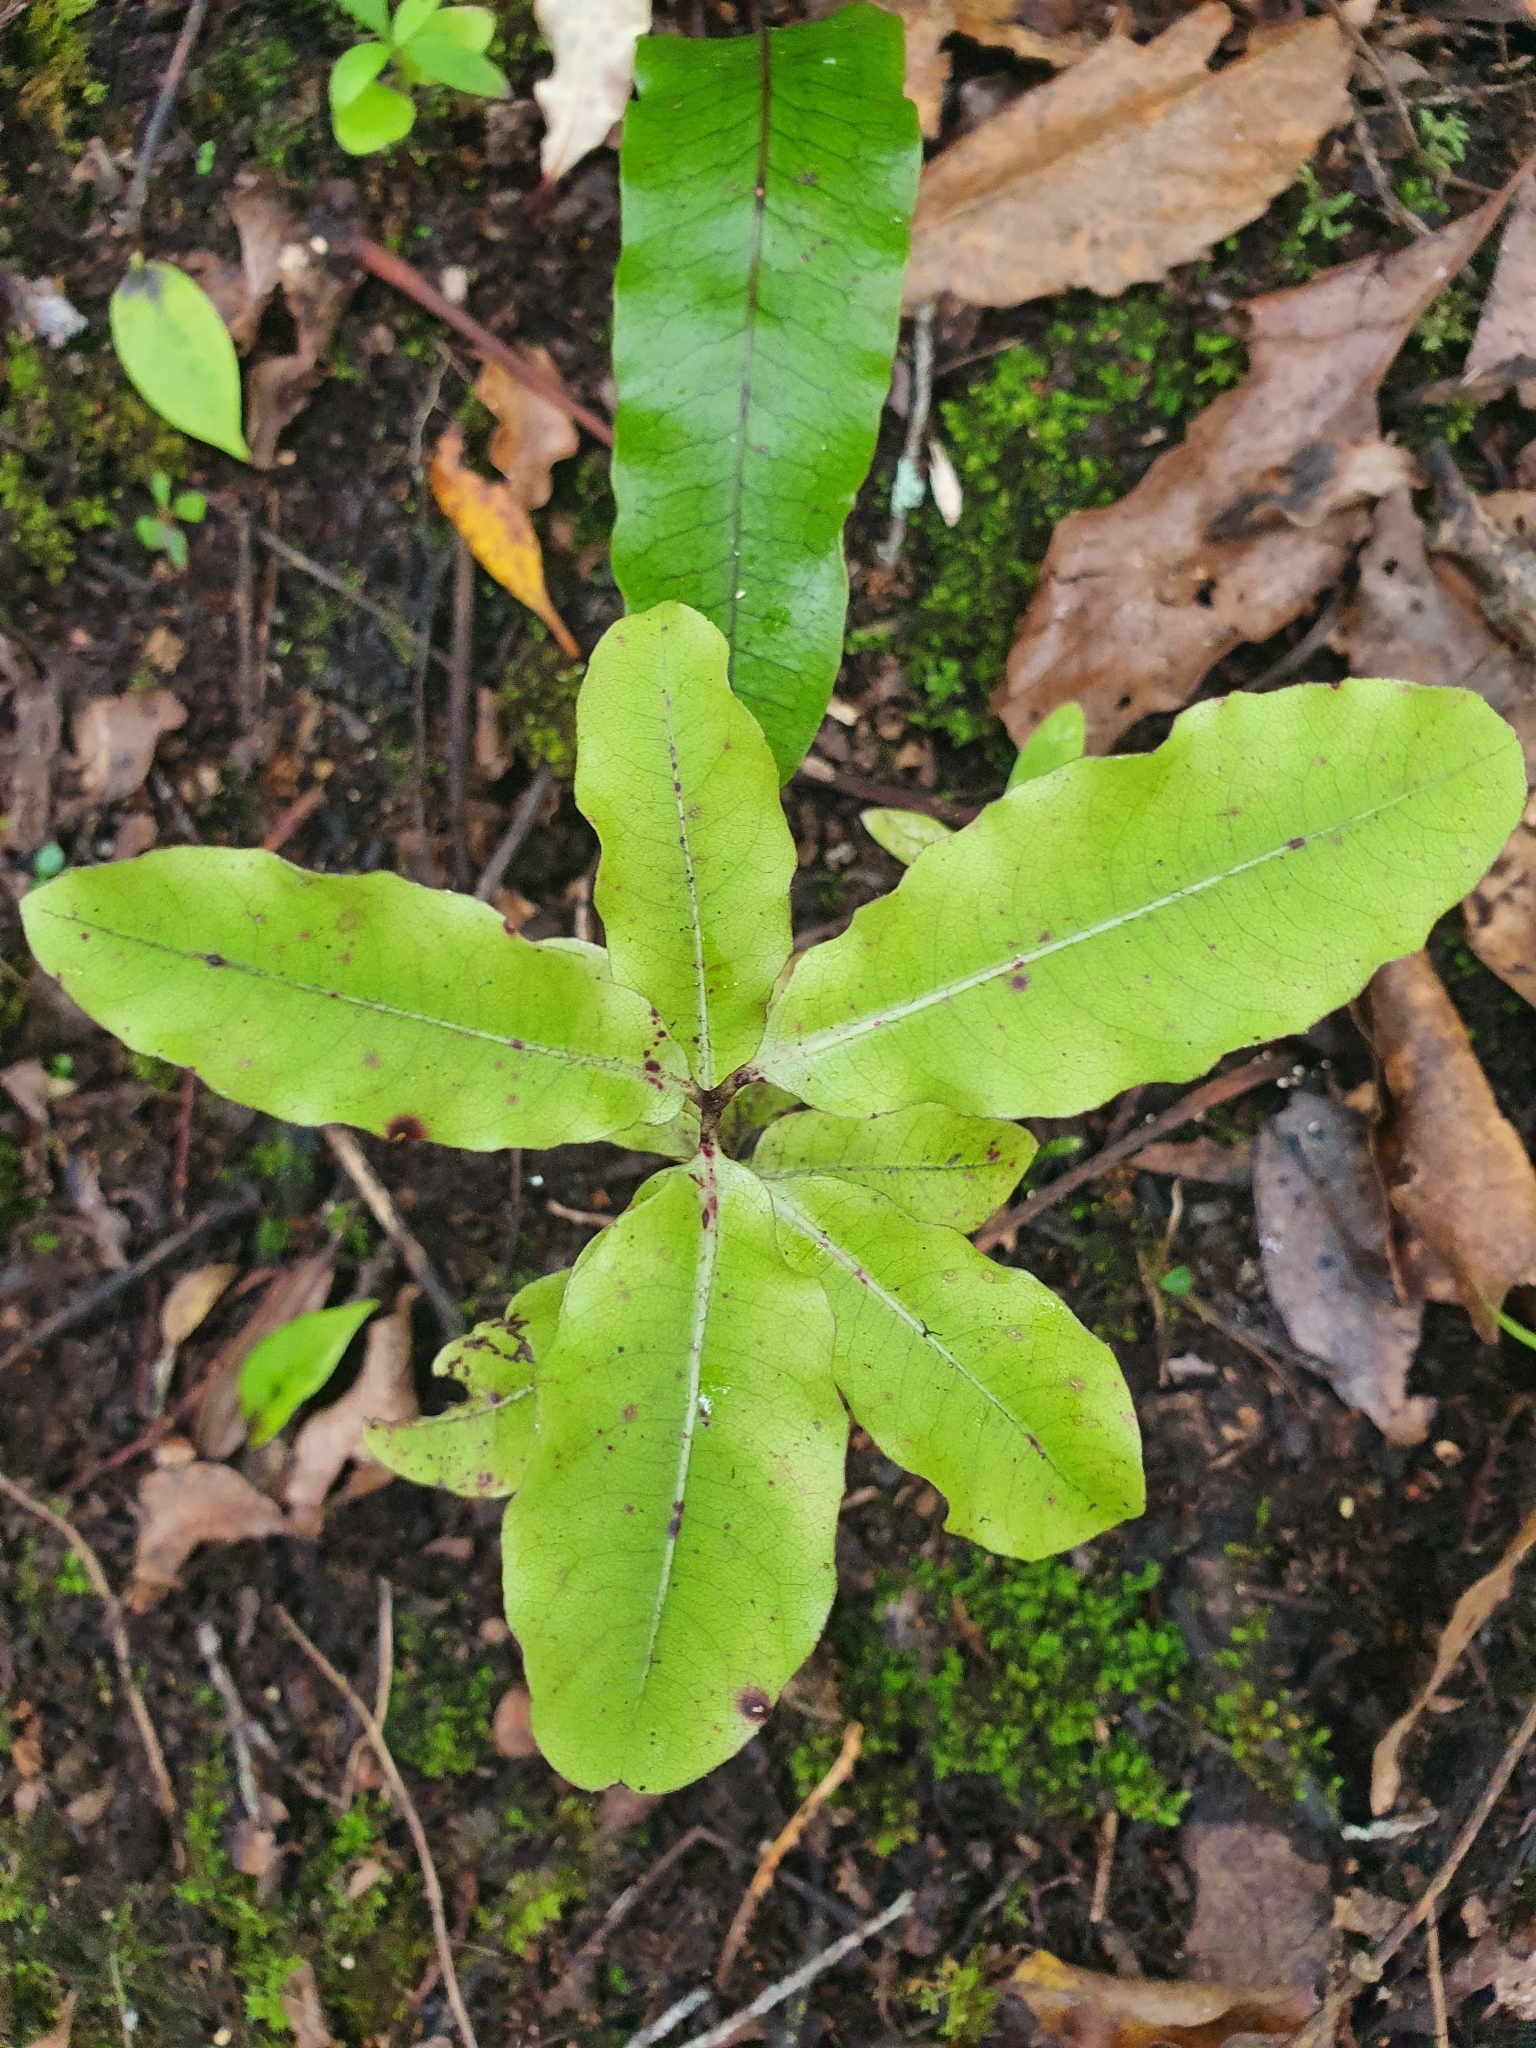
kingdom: Plantae
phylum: Tracheophyta
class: Magnoliopsida
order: Apiales
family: Pittosporaceae
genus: Pittosporum
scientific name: Pittosporum eugenioides
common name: Lemonwood
